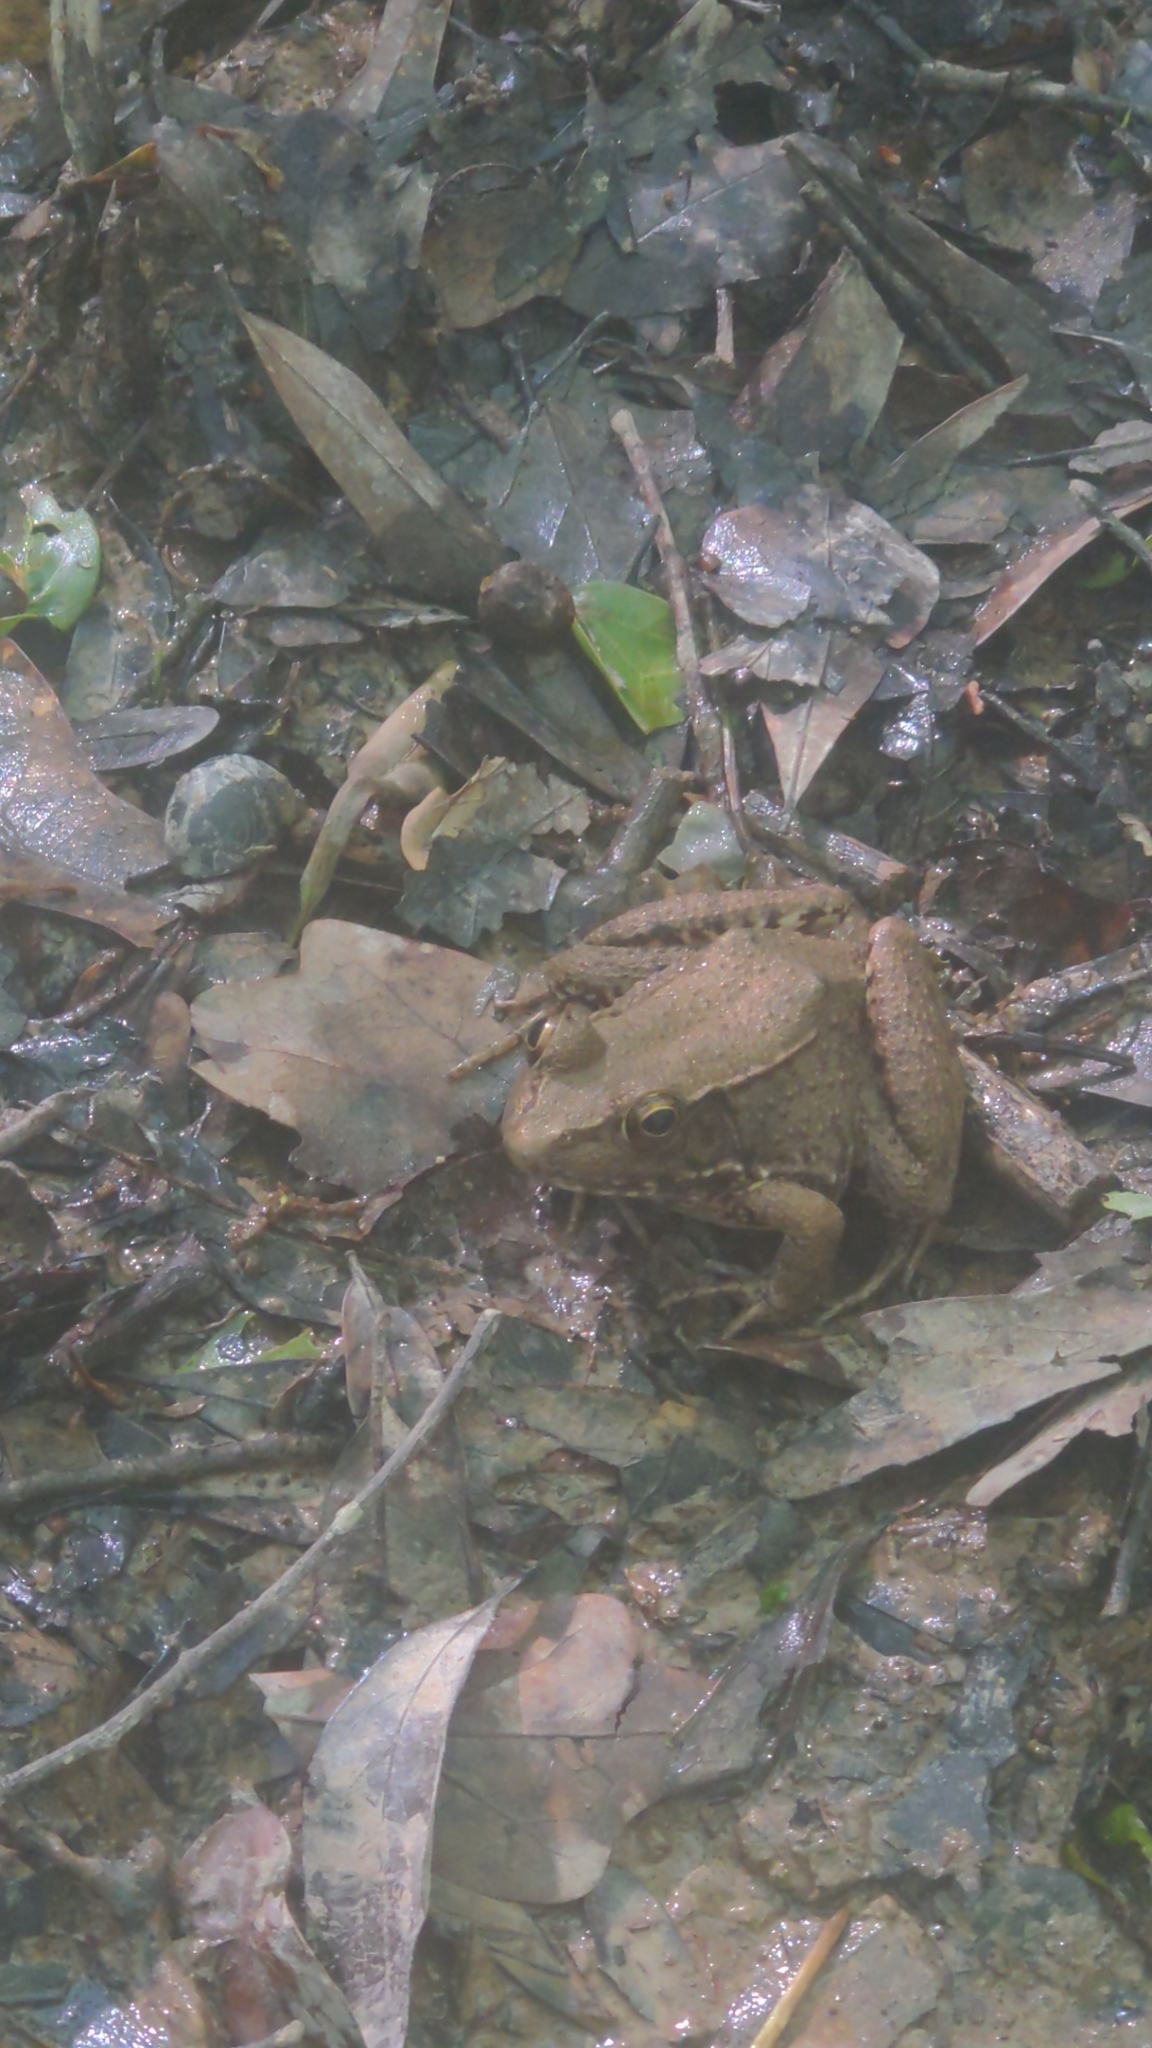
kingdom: Animalia
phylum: Chordata
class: Amphibia
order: Anura
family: Ranidae
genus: Lithobates
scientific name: Lithobates clamitans
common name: Green frog
